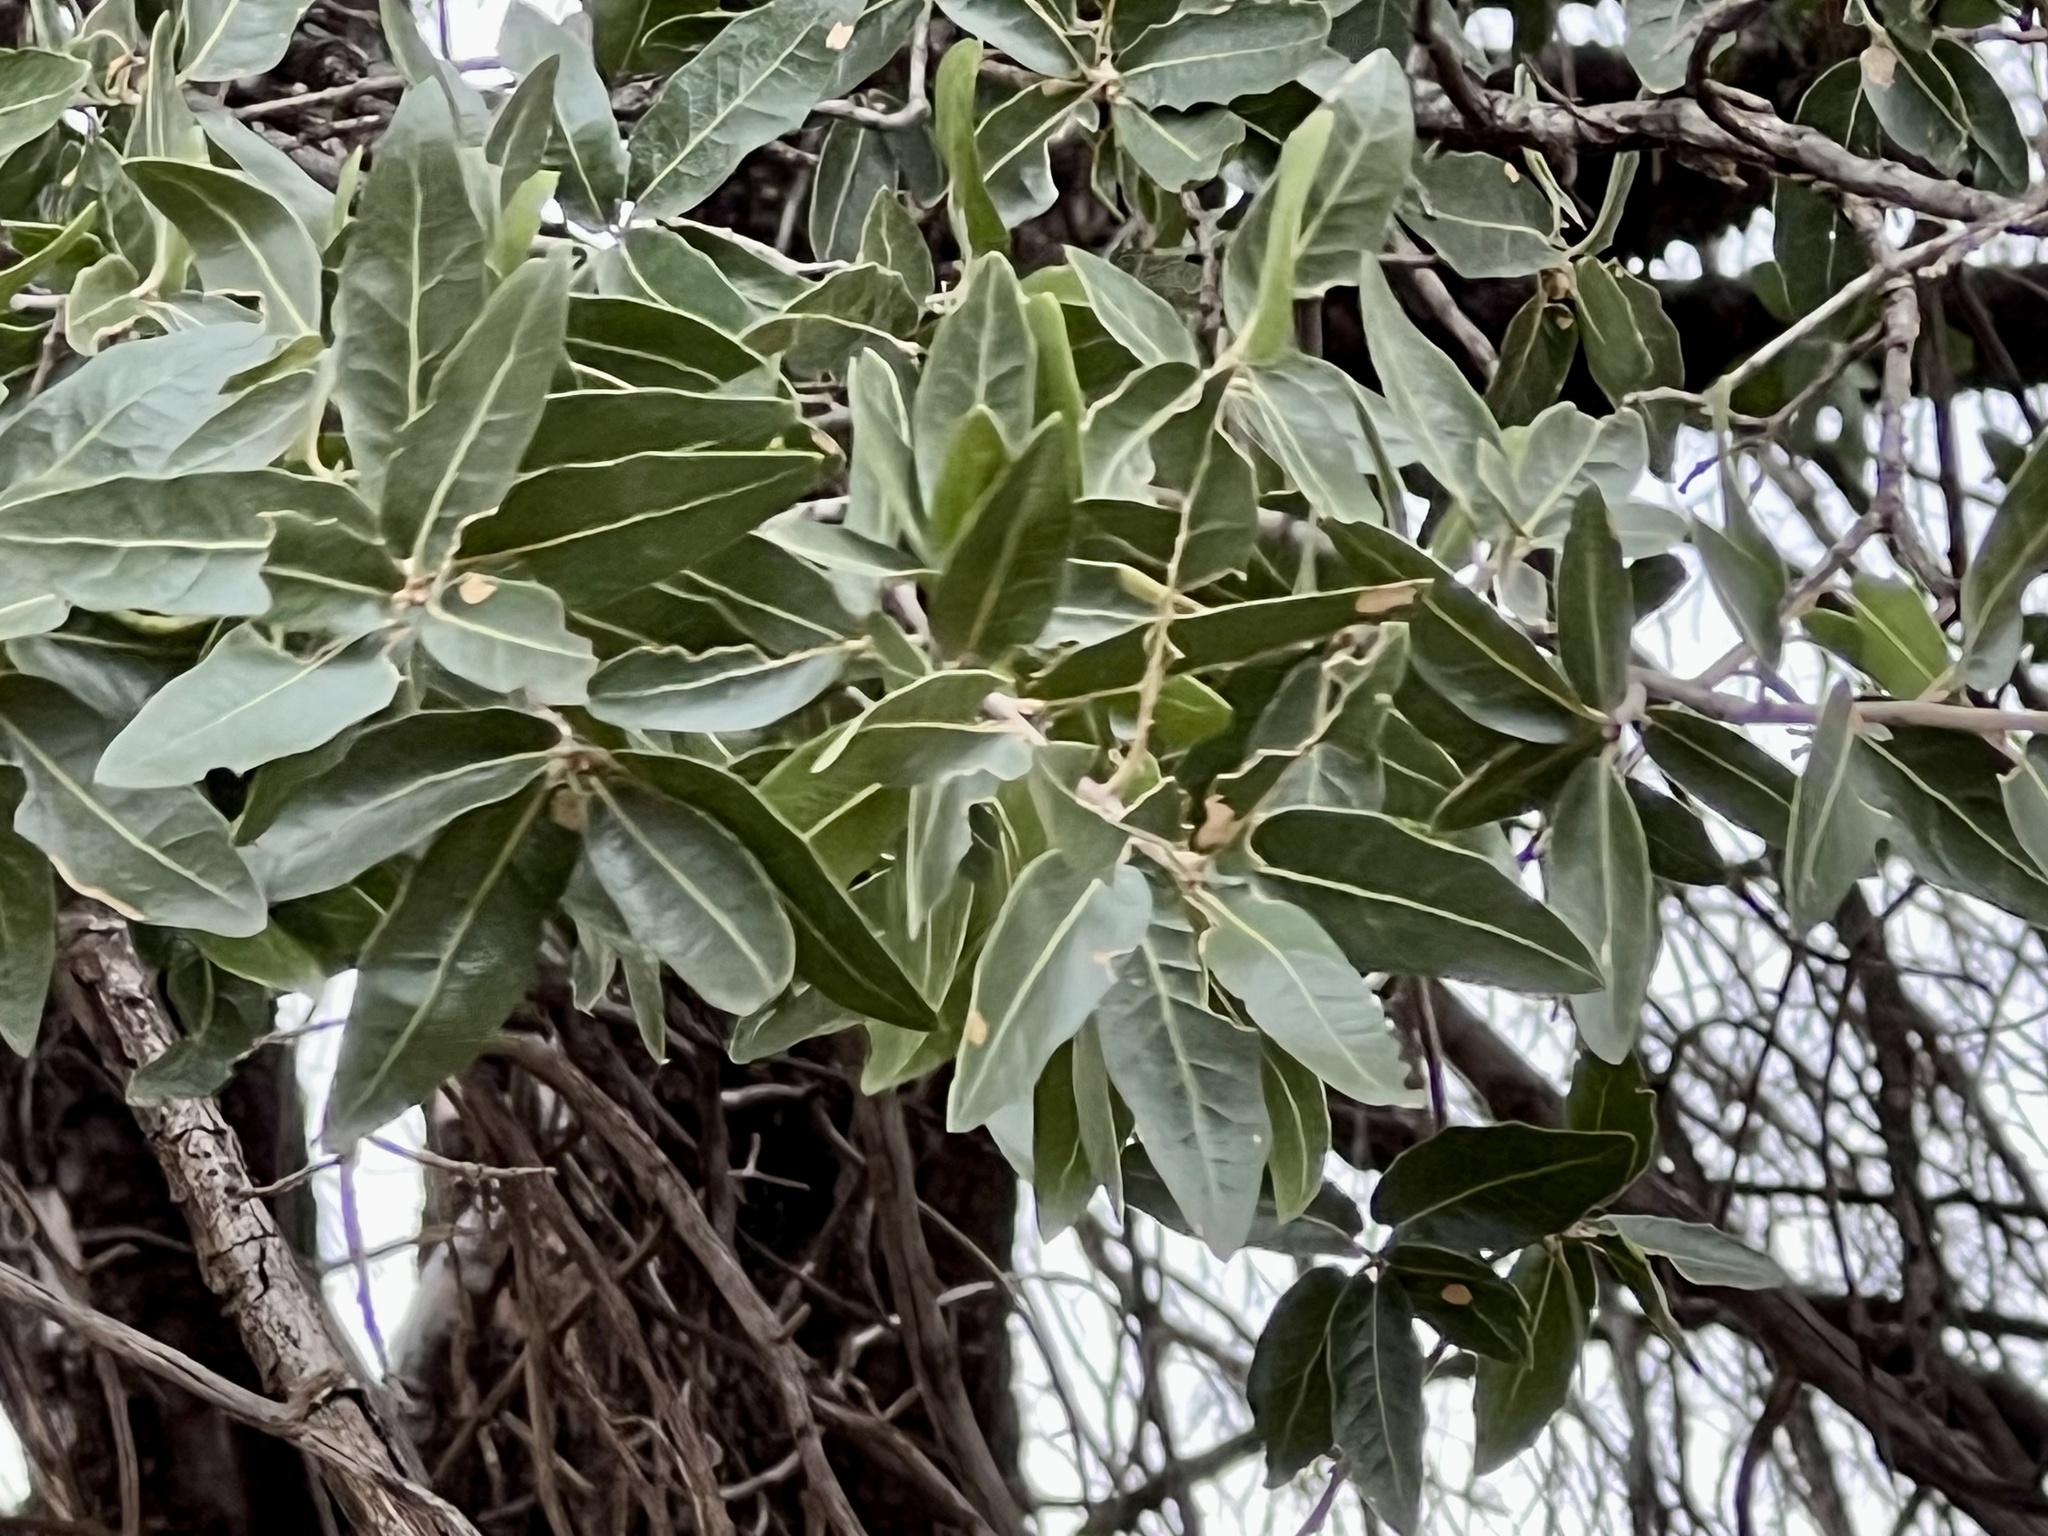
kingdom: Plantae
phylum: Tracheophyta
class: Magnoliopsida
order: Fagales
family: Fagaceae
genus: Quercus
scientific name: Quercus emoryi
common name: Emory oak
